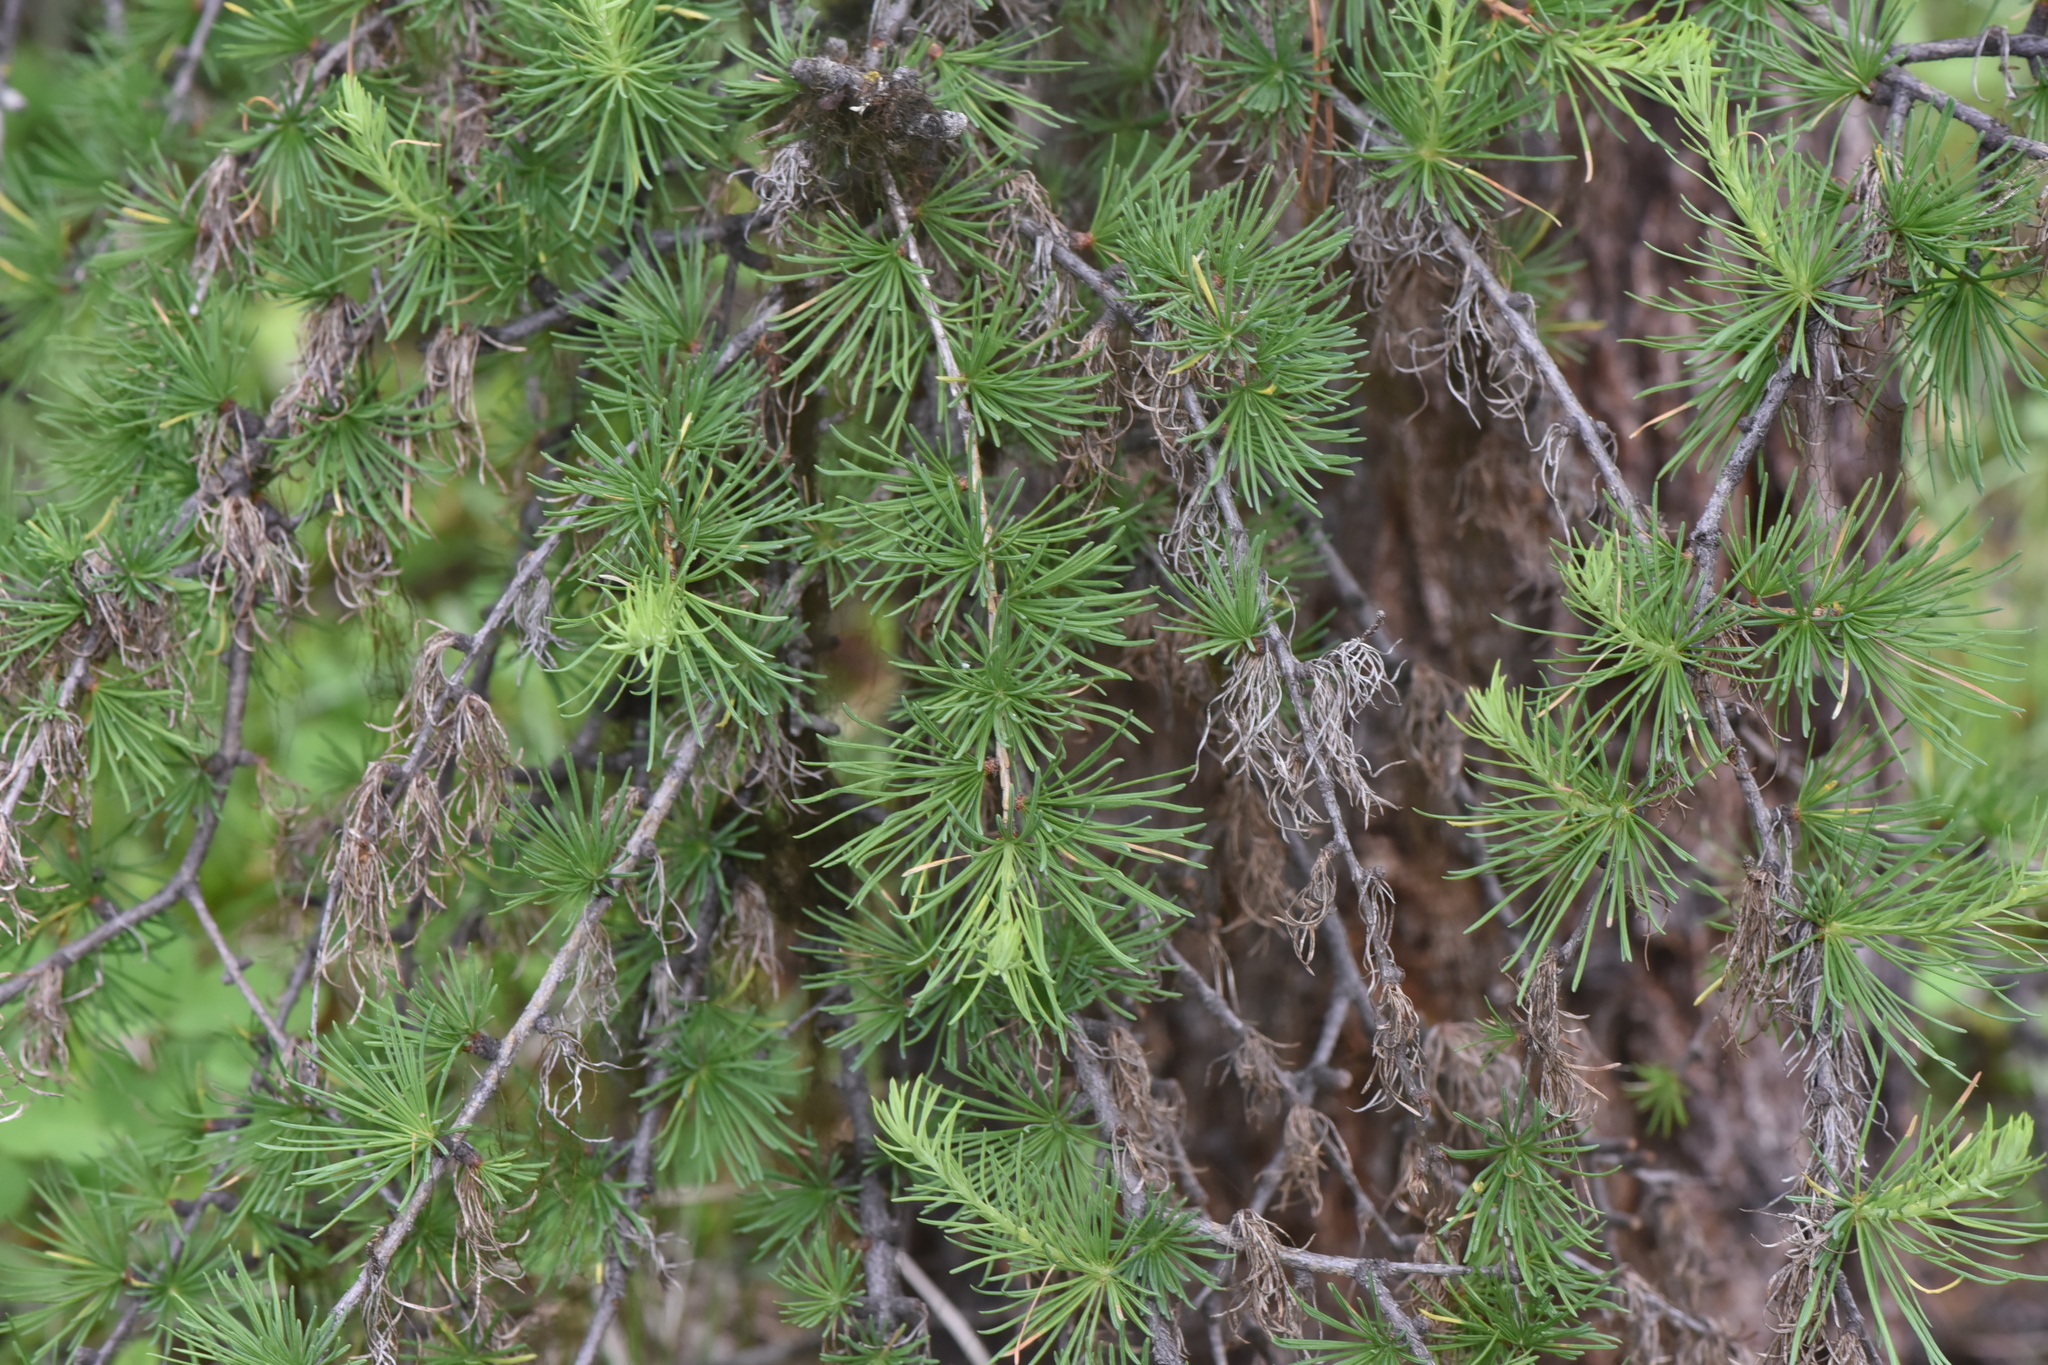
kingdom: Plantae
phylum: Tracheophyta
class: Pinopsida
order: Pinales
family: Pinaceae
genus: Larix
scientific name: Larix occidentalis
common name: Western larch
